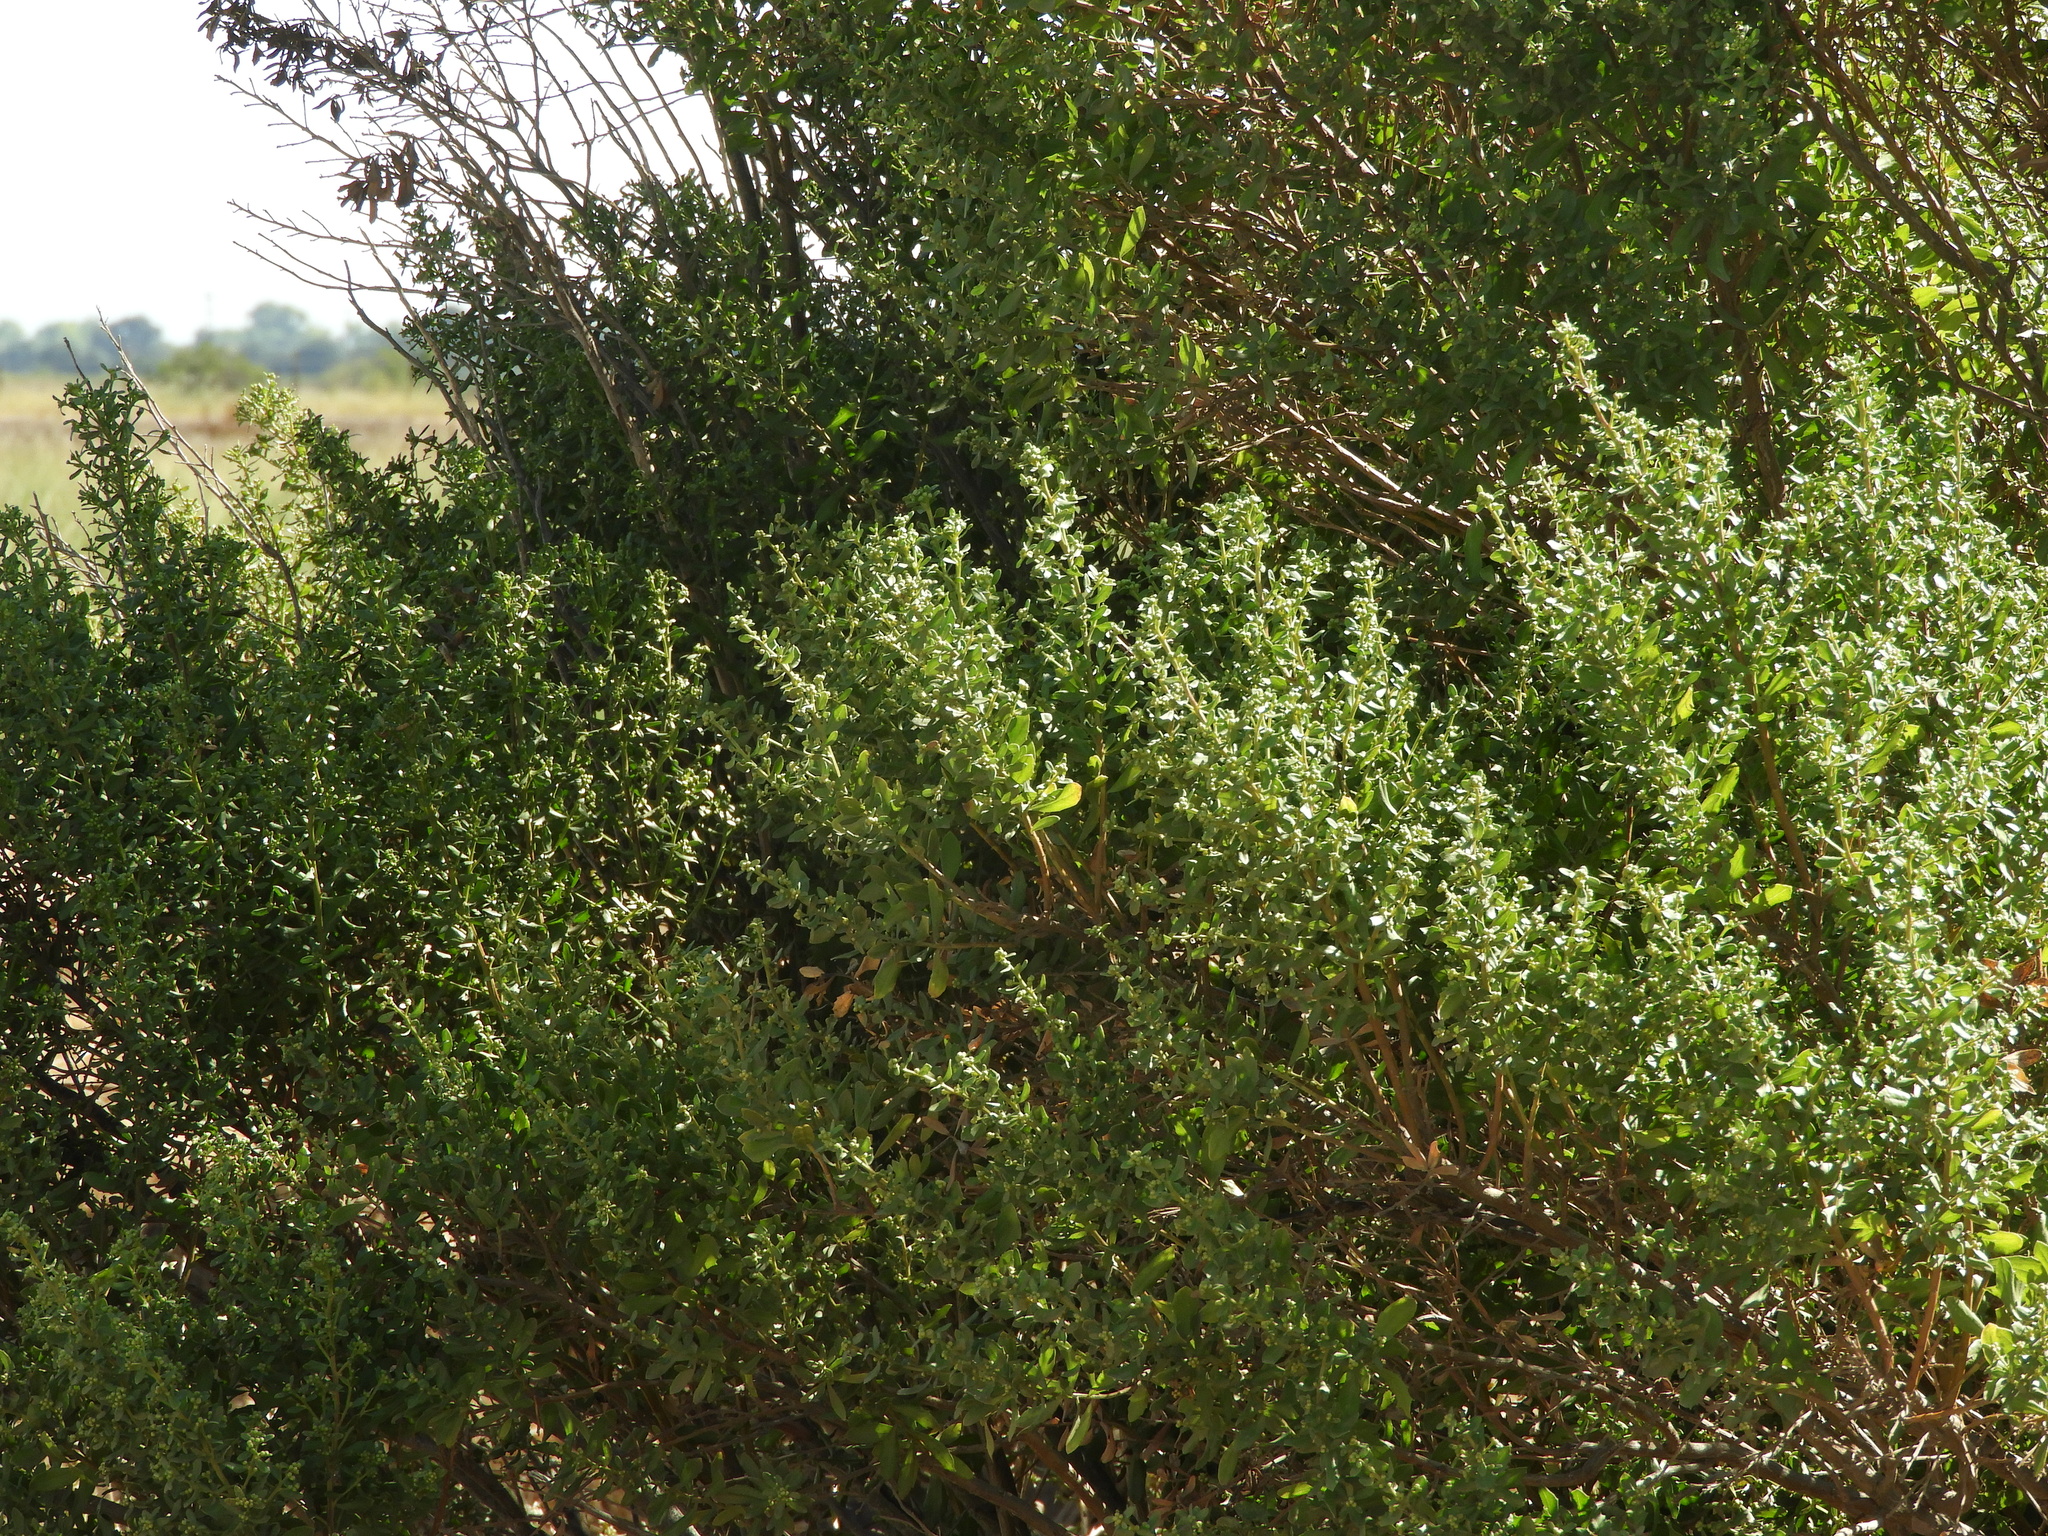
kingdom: Plantae
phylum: Tracheophyta
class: Magnoliopsida
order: Asterales
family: Asteraceae
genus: Baccharis
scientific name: Baccharis pilularis
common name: Coyotebrush
